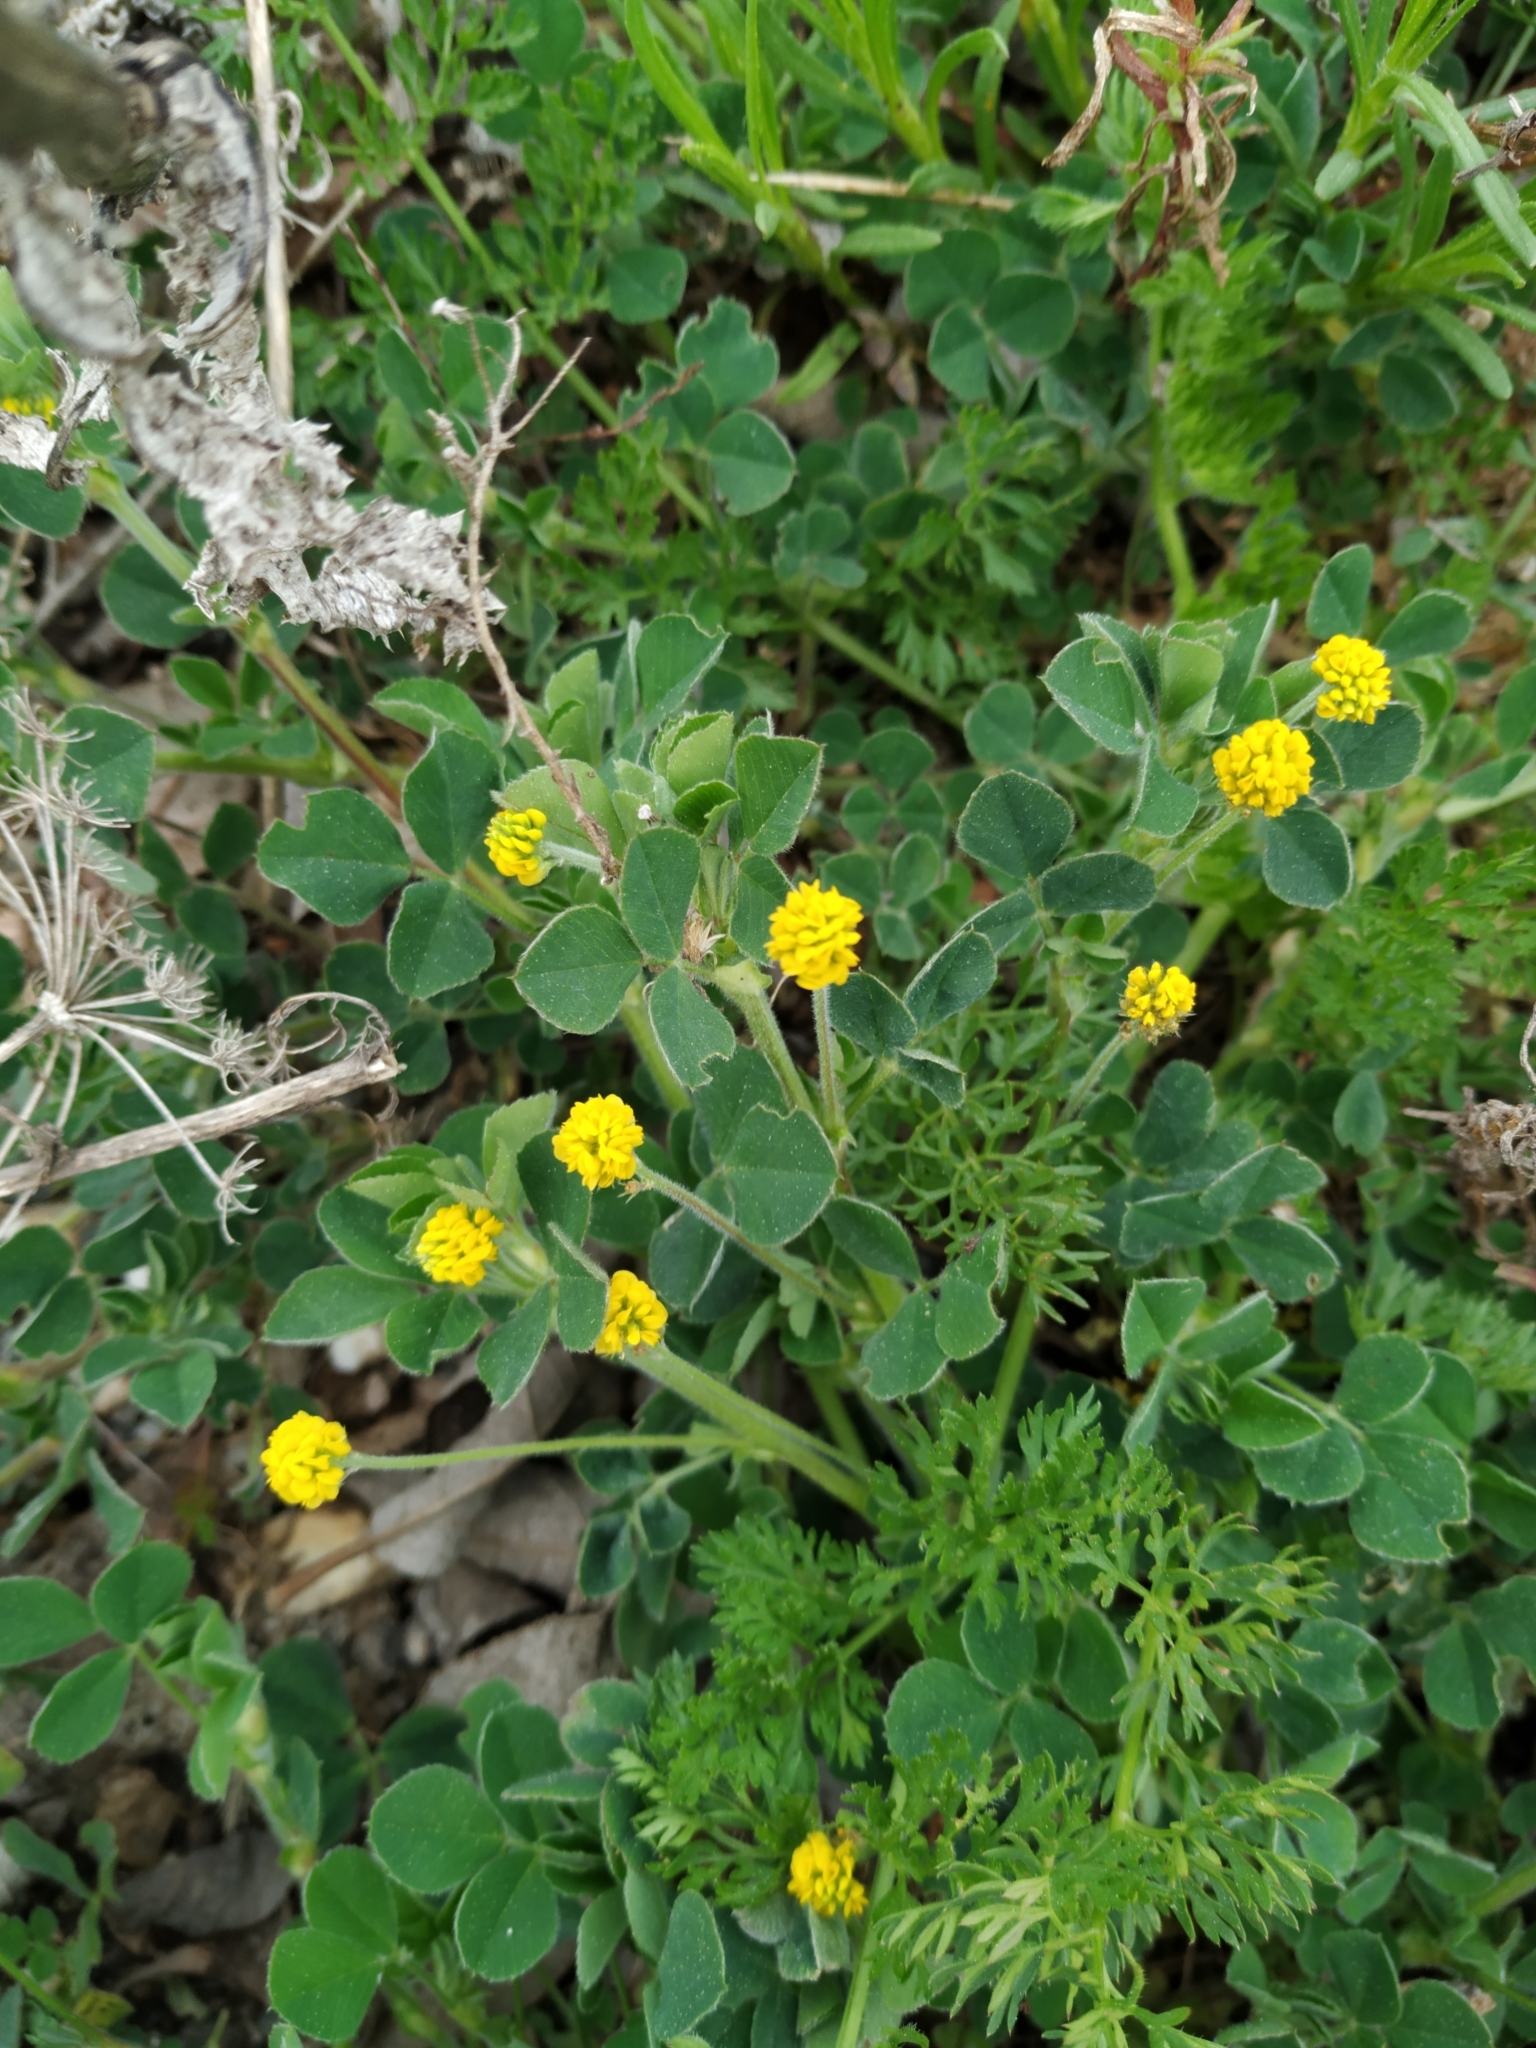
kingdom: Plantae
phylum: Tracheophyta
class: Magnoliopsida
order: Fabales
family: Fabaceae
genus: Medicago
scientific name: Medicago lupulina
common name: Black medick
